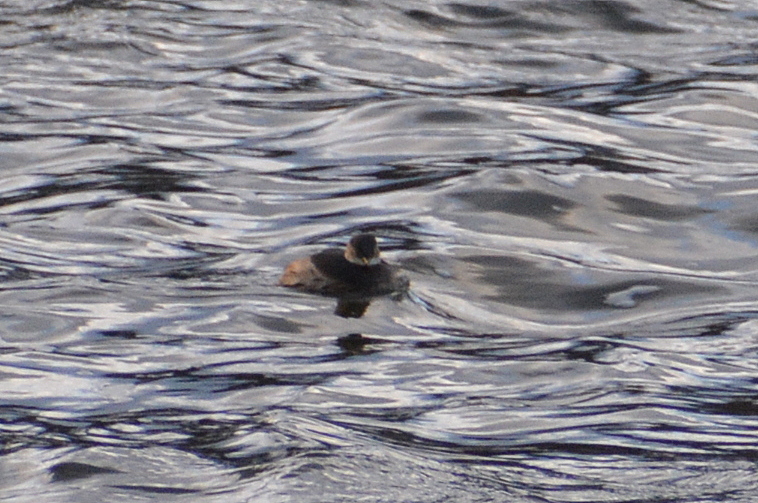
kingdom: Animalia
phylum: Chordata
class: Aves
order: Podicipediformes
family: Podicipedidae
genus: Tachybaptus
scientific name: Tachybaptus ruficollis
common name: Little grebe
